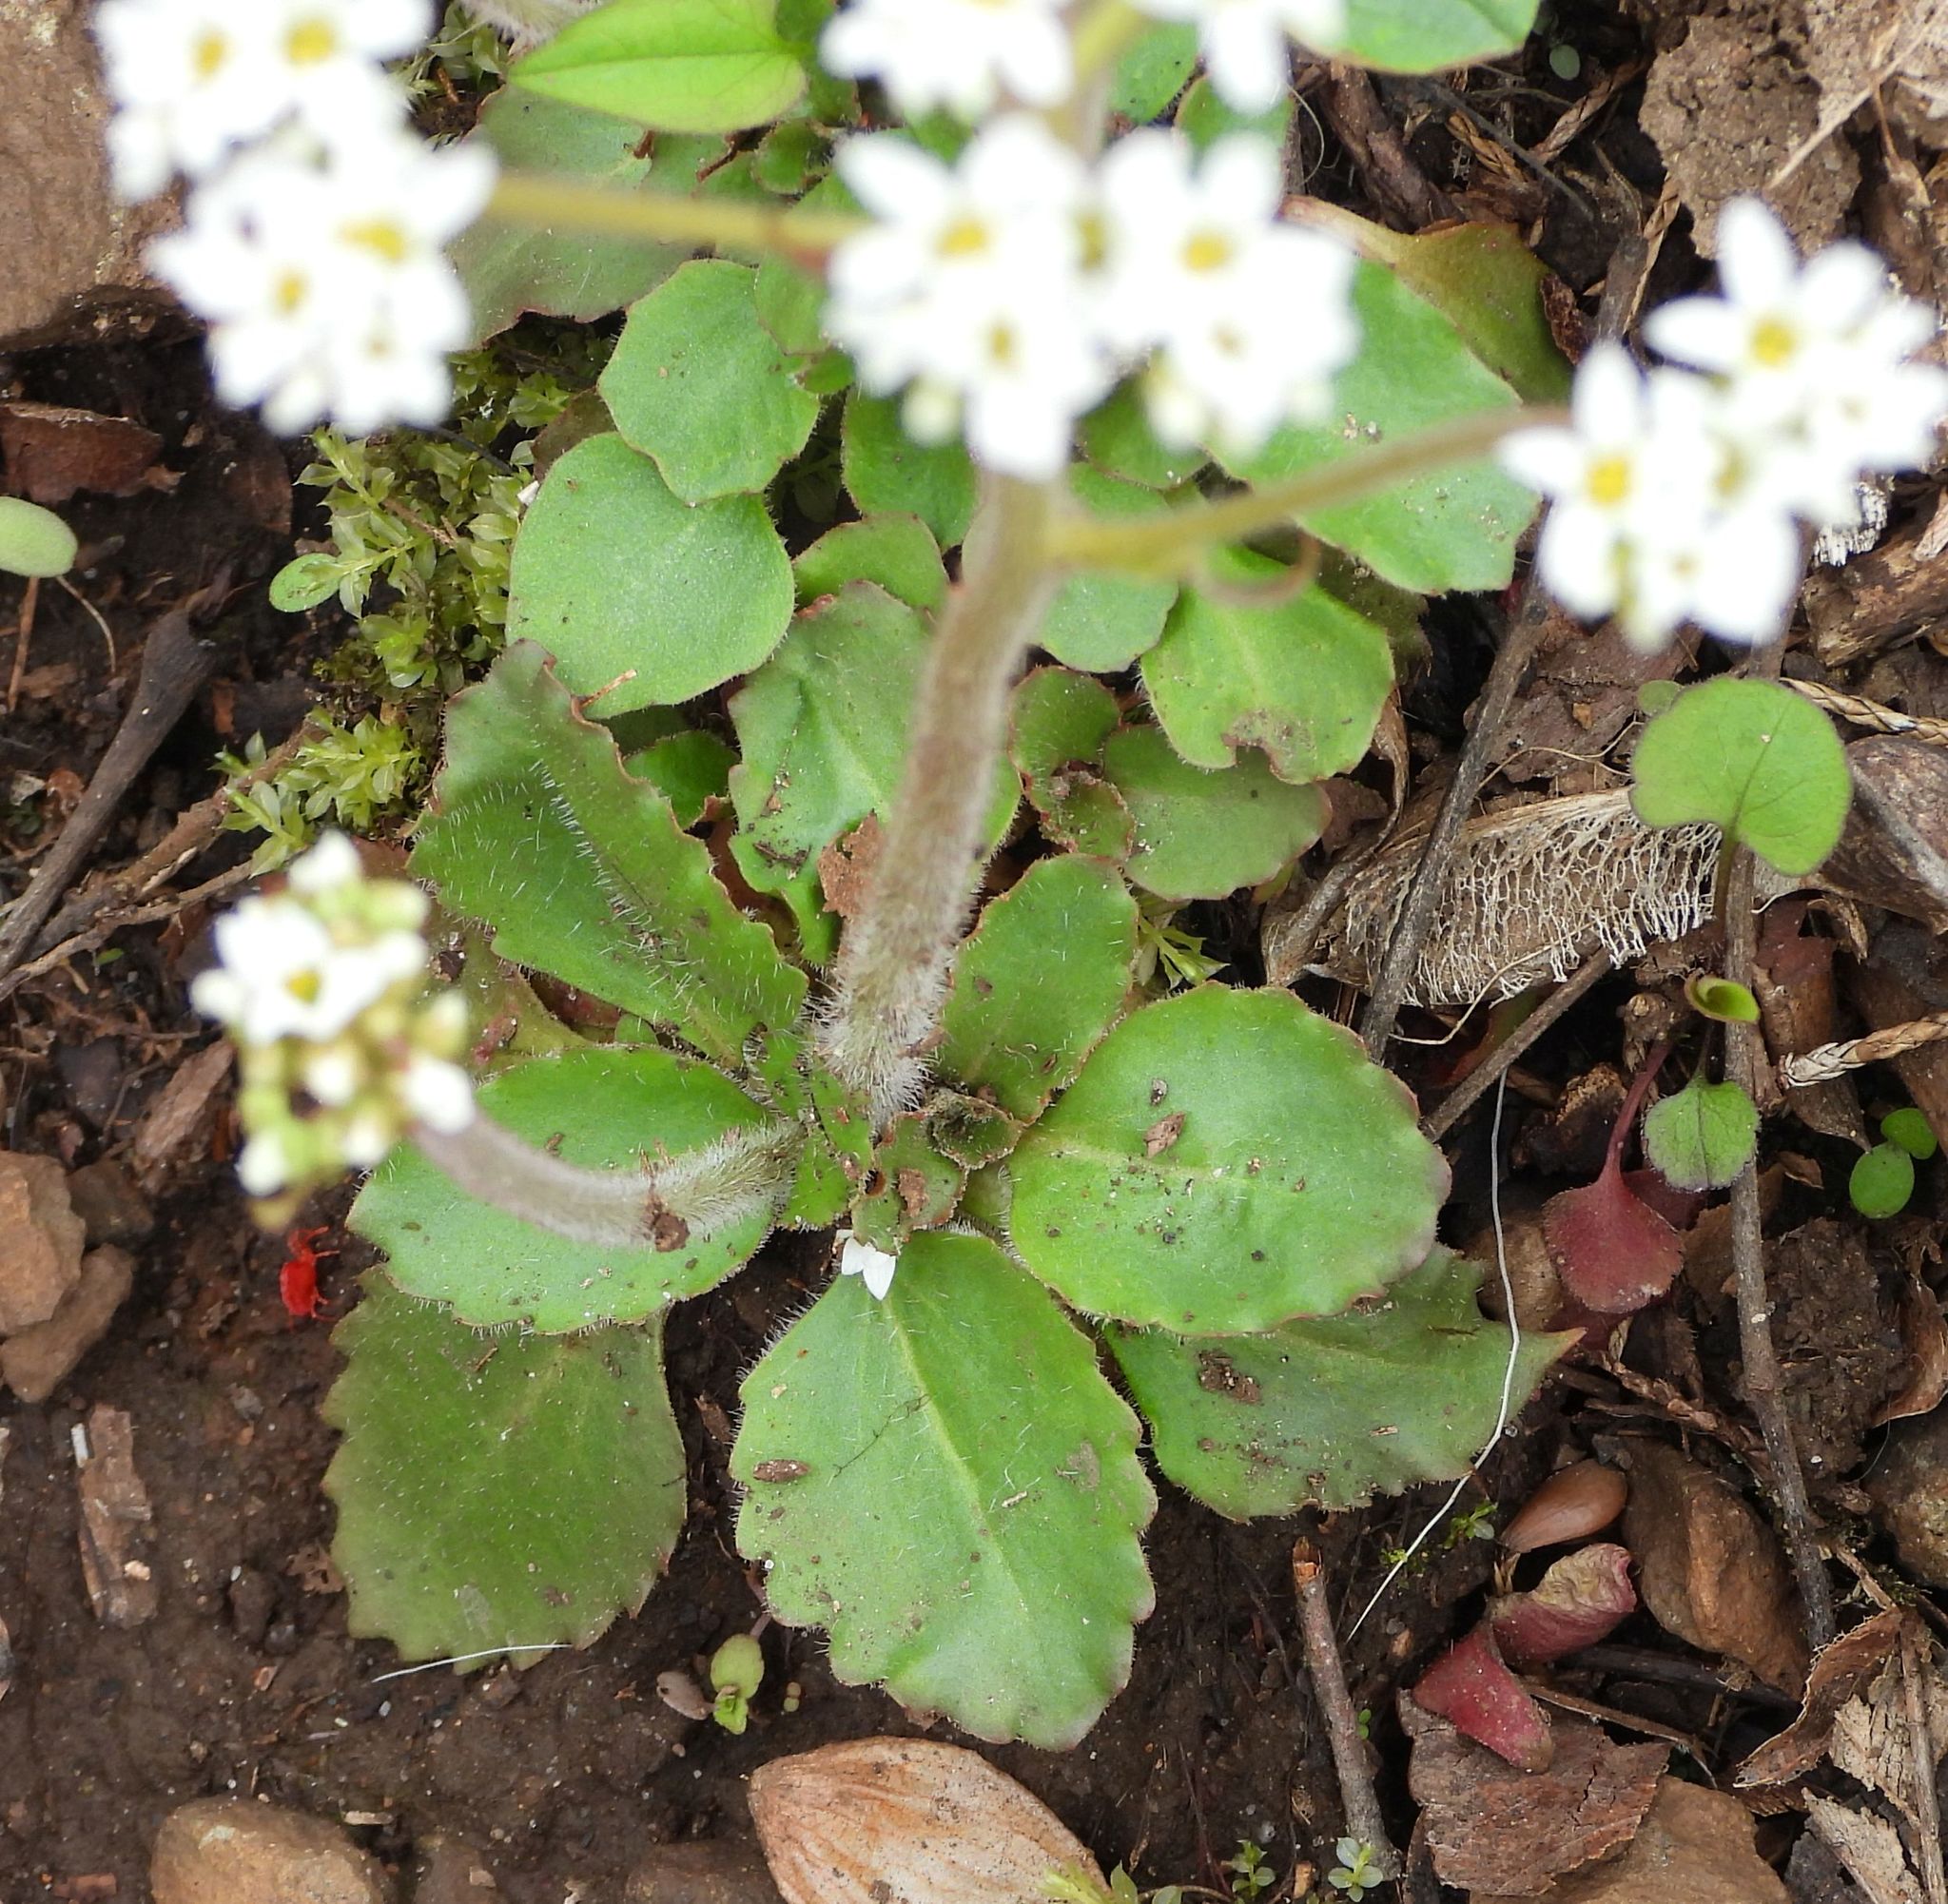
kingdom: Plantae
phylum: Tracheophyta
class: Magnoliopsida
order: Saxifragales
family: Saxifragaceae
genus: Micranthes
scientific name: Micranthes virginiensis
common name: Early saxifrage
